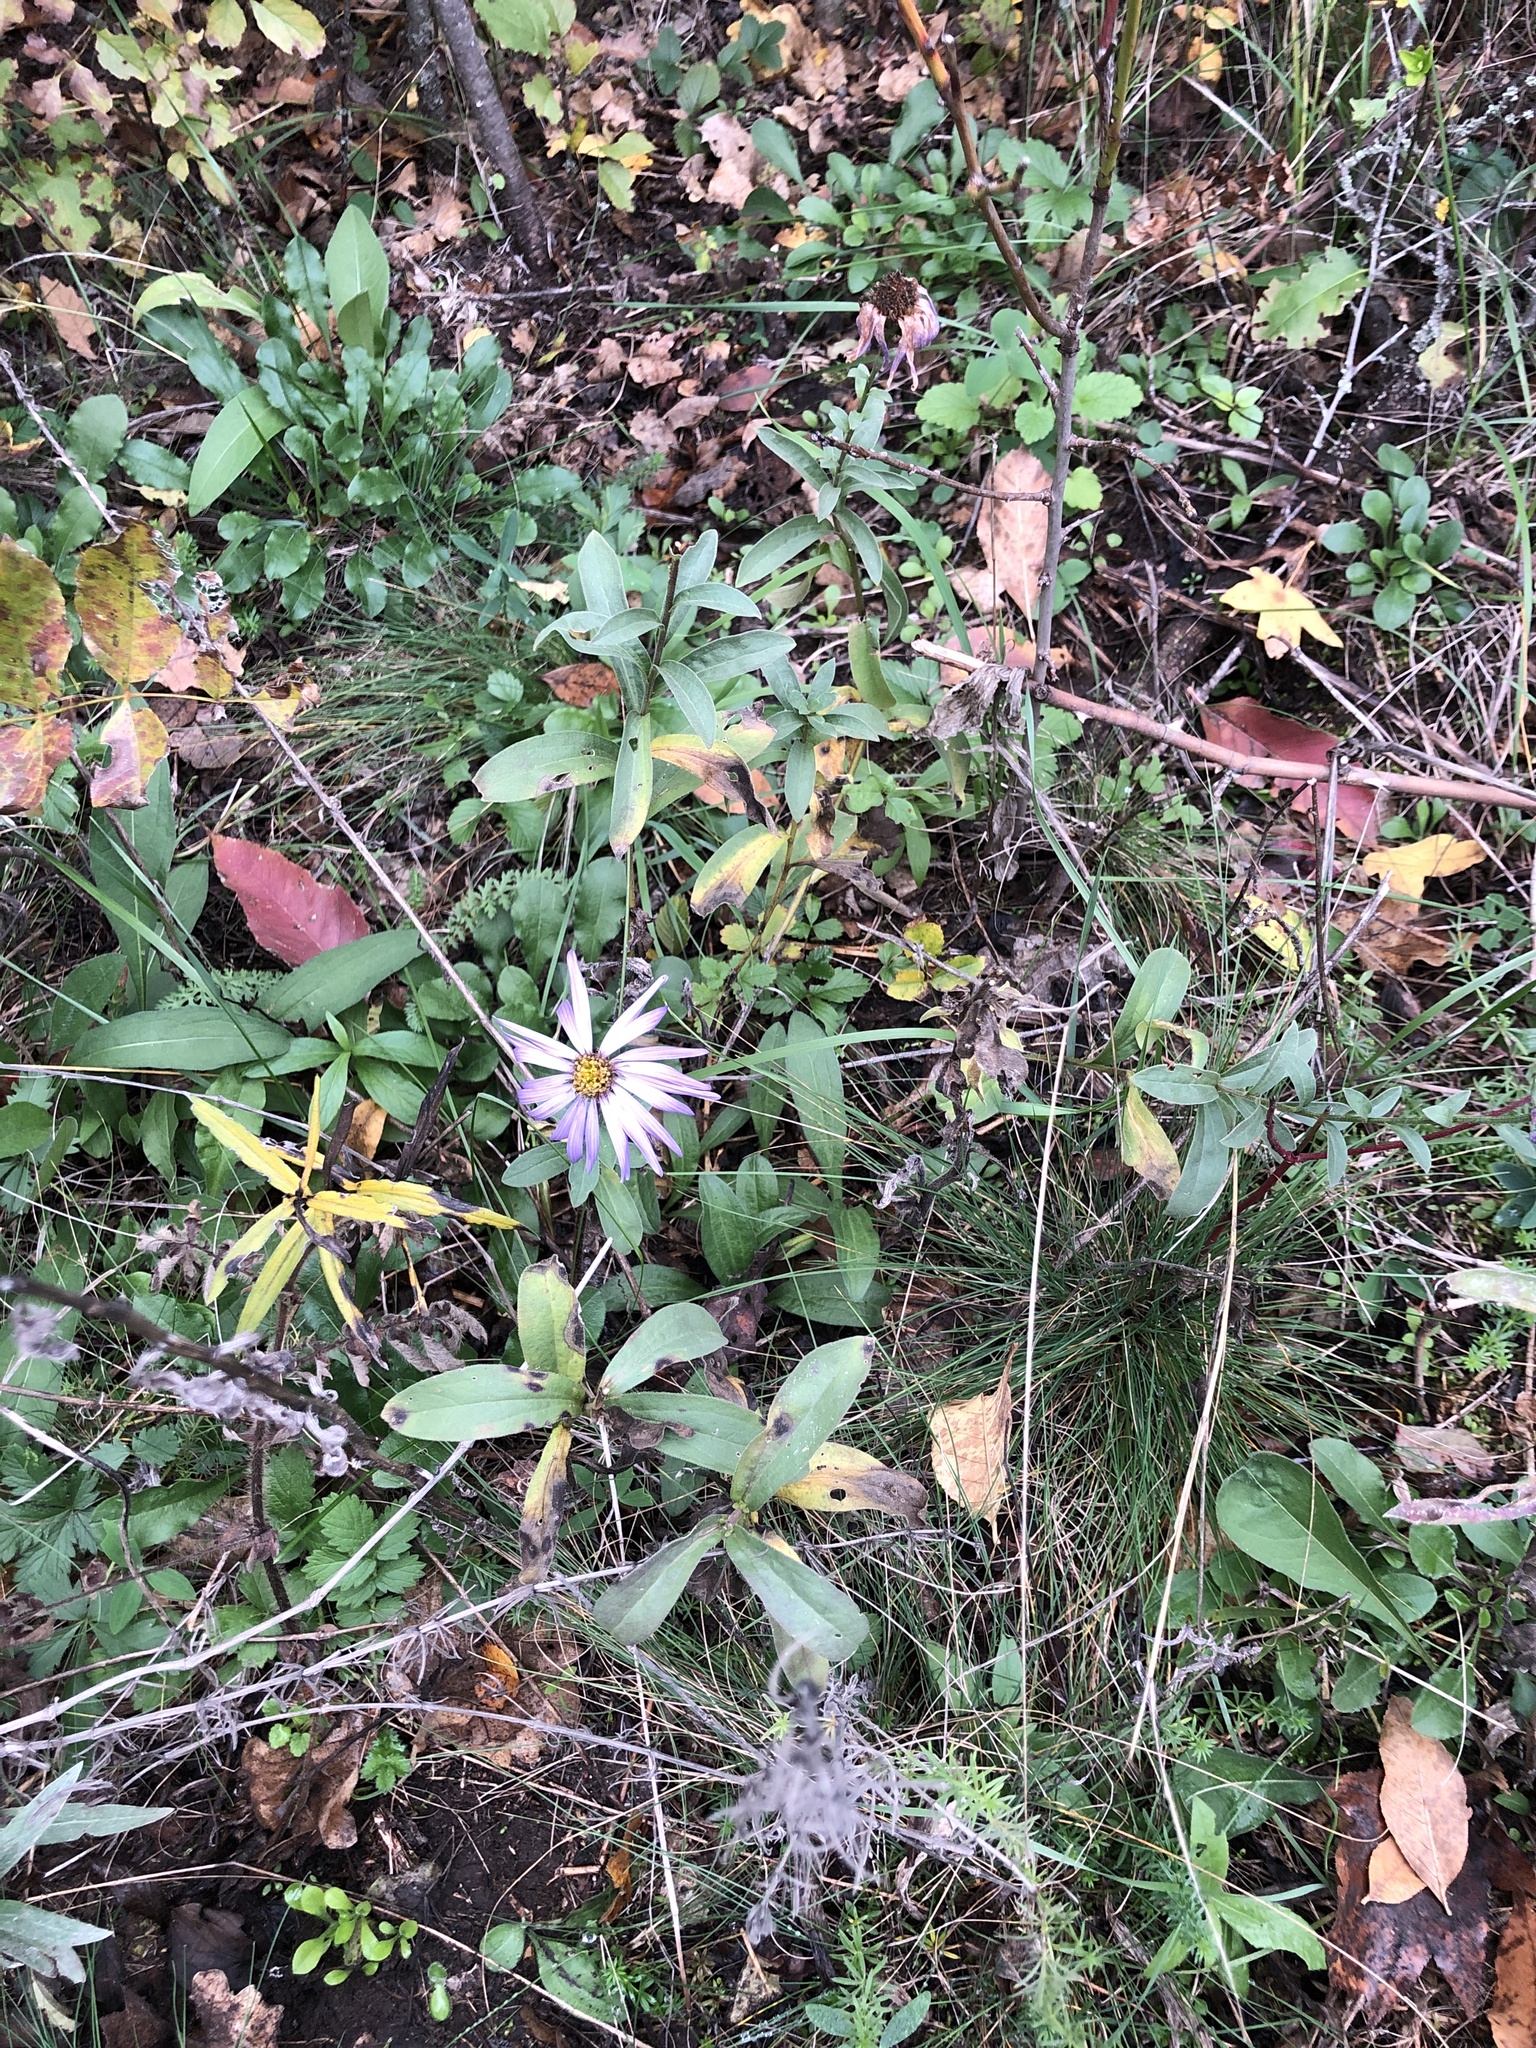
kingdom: Plantae
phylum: Tracheophyta
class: Magnoliopsida
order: Asterales
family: Asteraceae
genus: Aster
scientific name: Aster amellus
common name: European michaelmas daisy
